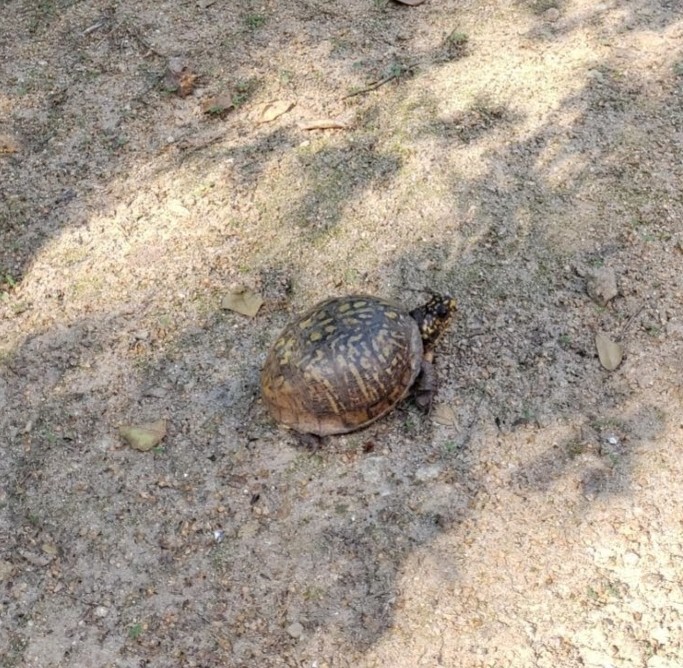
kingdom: Animalia
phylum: Chordata
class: Testudines
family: Emydidae
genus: Terrapene
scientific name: Terrapene carolina
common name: Common box turtle
